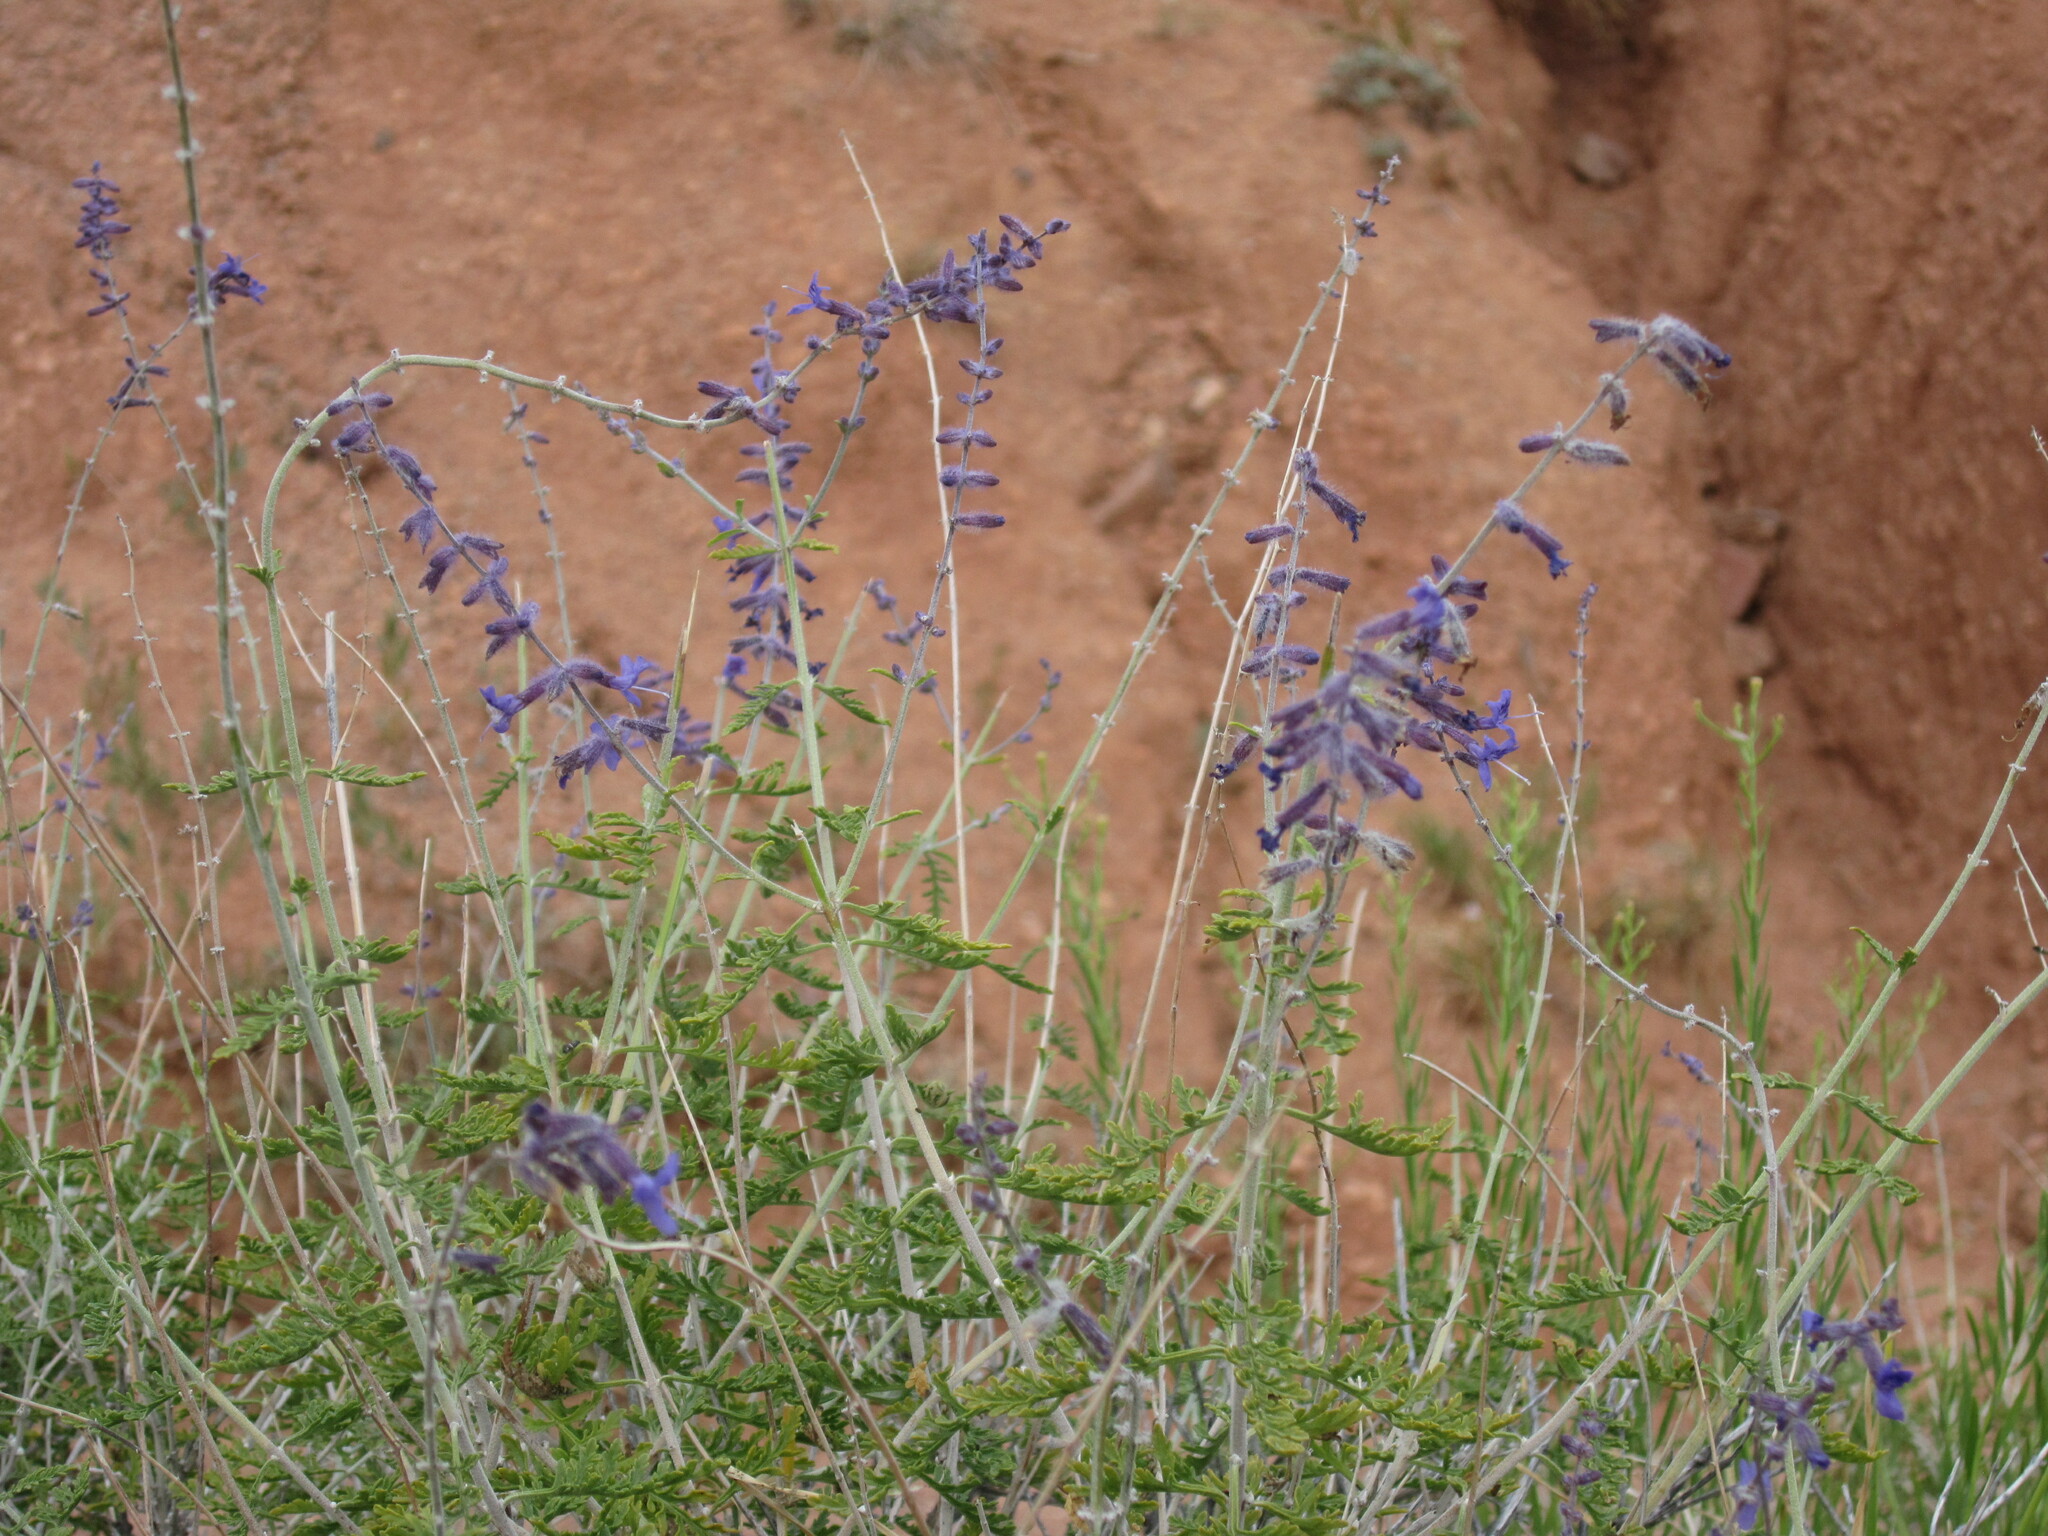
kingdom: Plantae
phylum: Tracheophyta
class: Magnoliopsida
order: Lamiales
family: Lamiaceae
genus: Salvia
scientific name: Salvia abrotanoides
